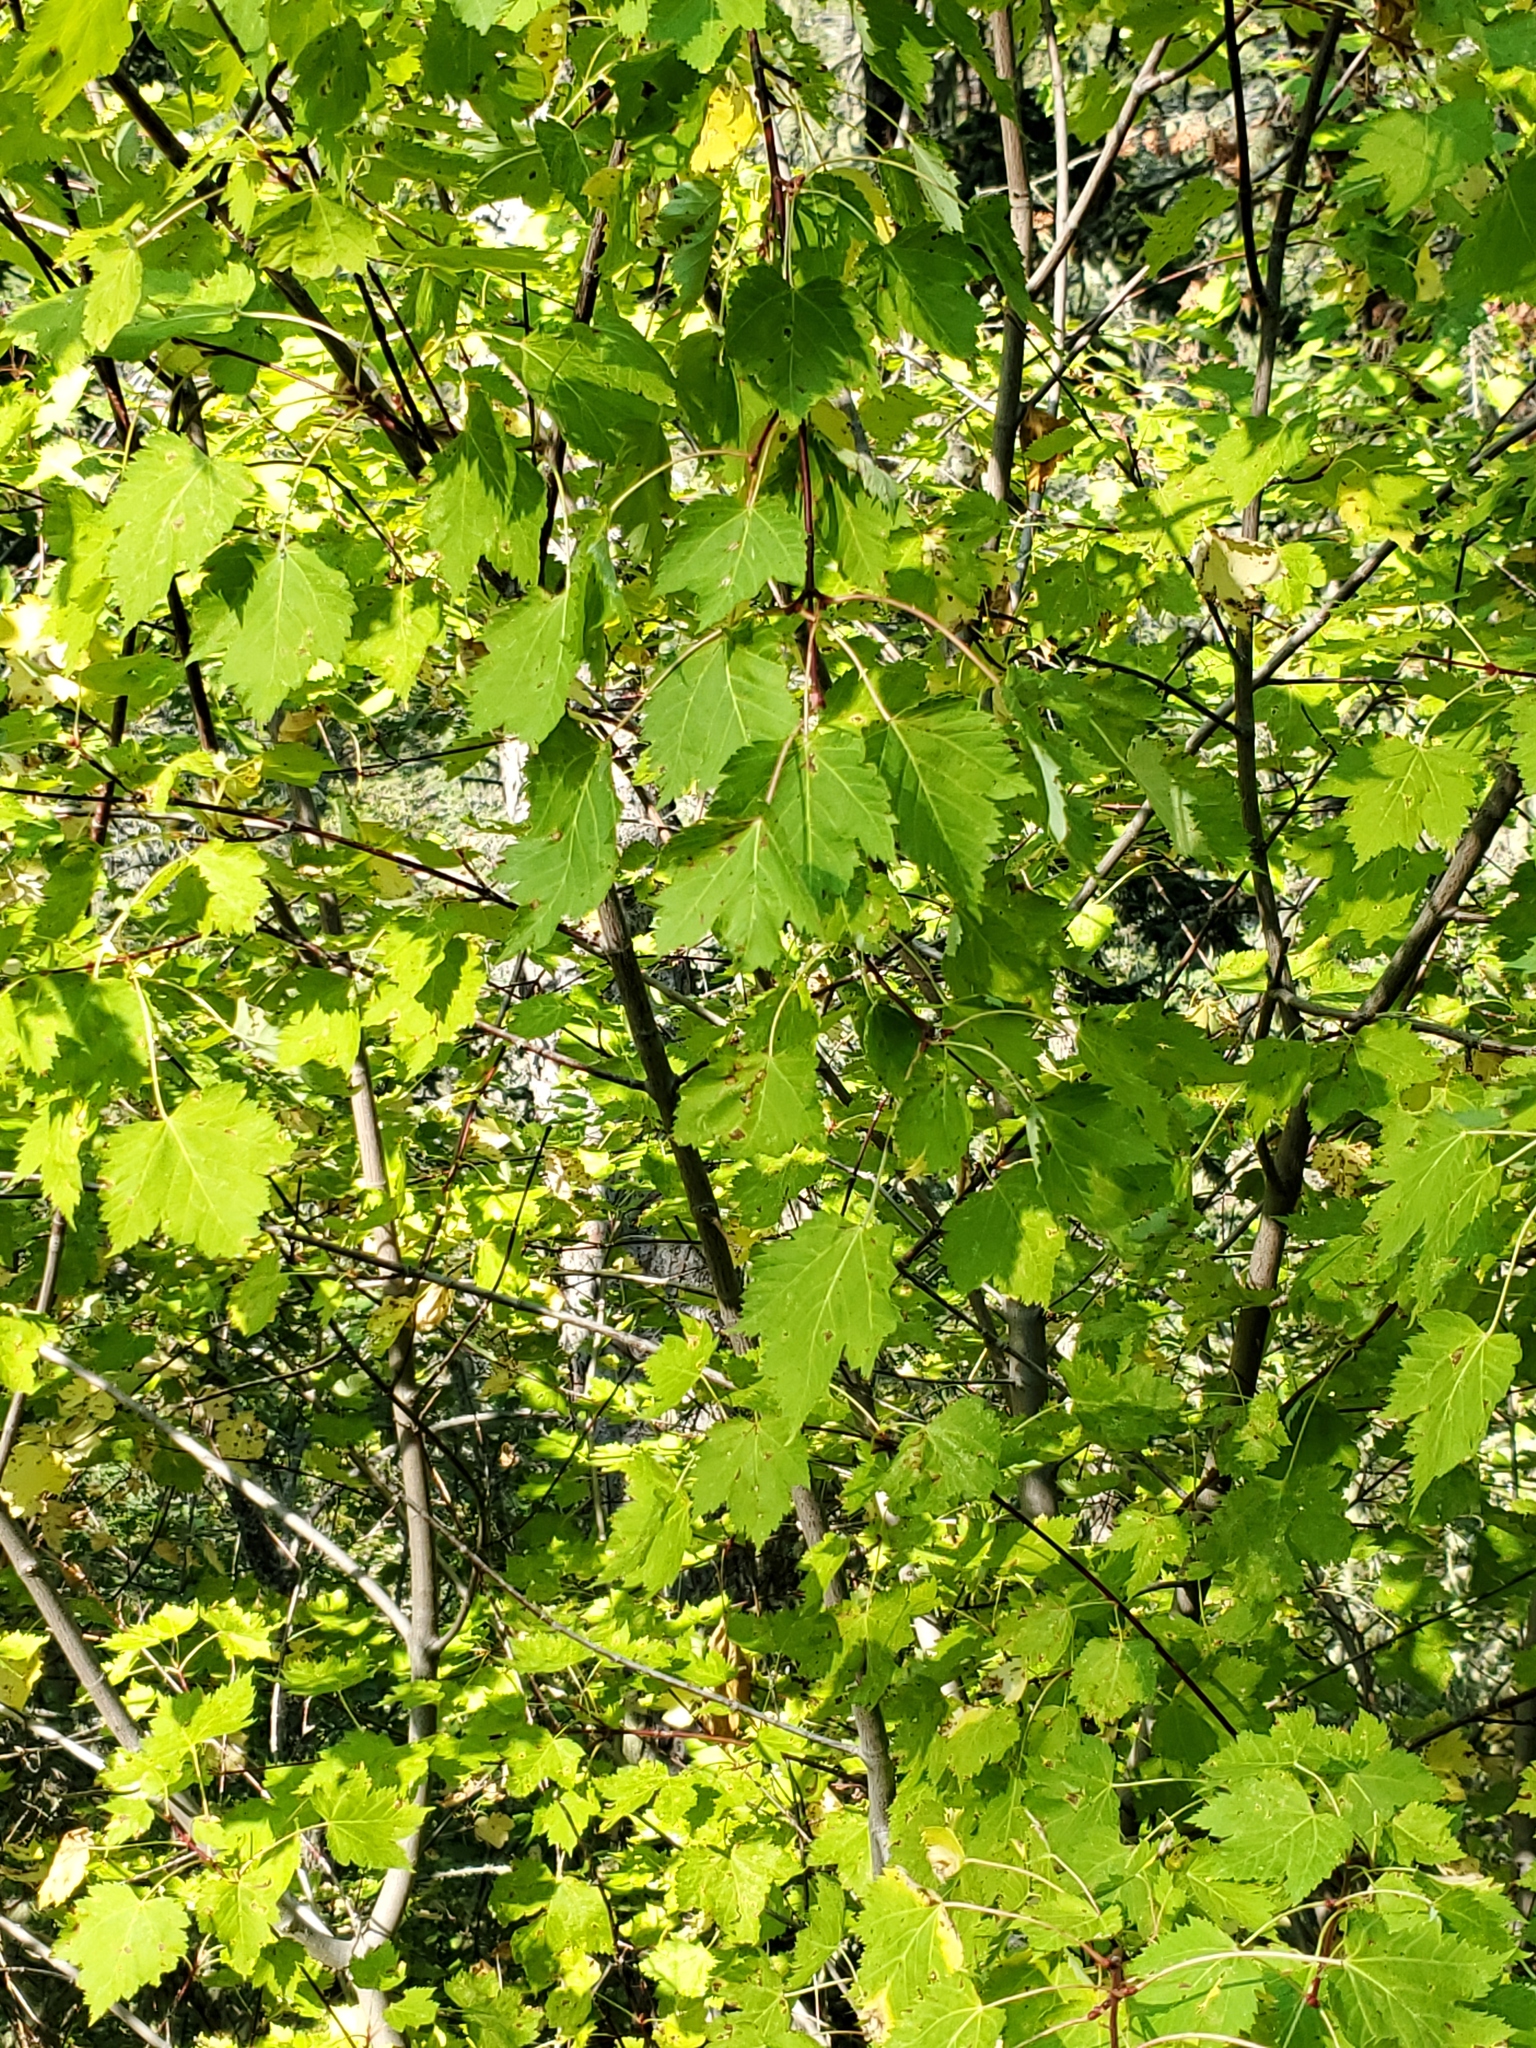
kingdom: Plantae
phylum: Tracheophyta
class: Magnoliopsida
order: Sapindales
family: Sapindaceae
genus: Acer
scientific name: Acer glabrum
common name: Rocky mountain maple
